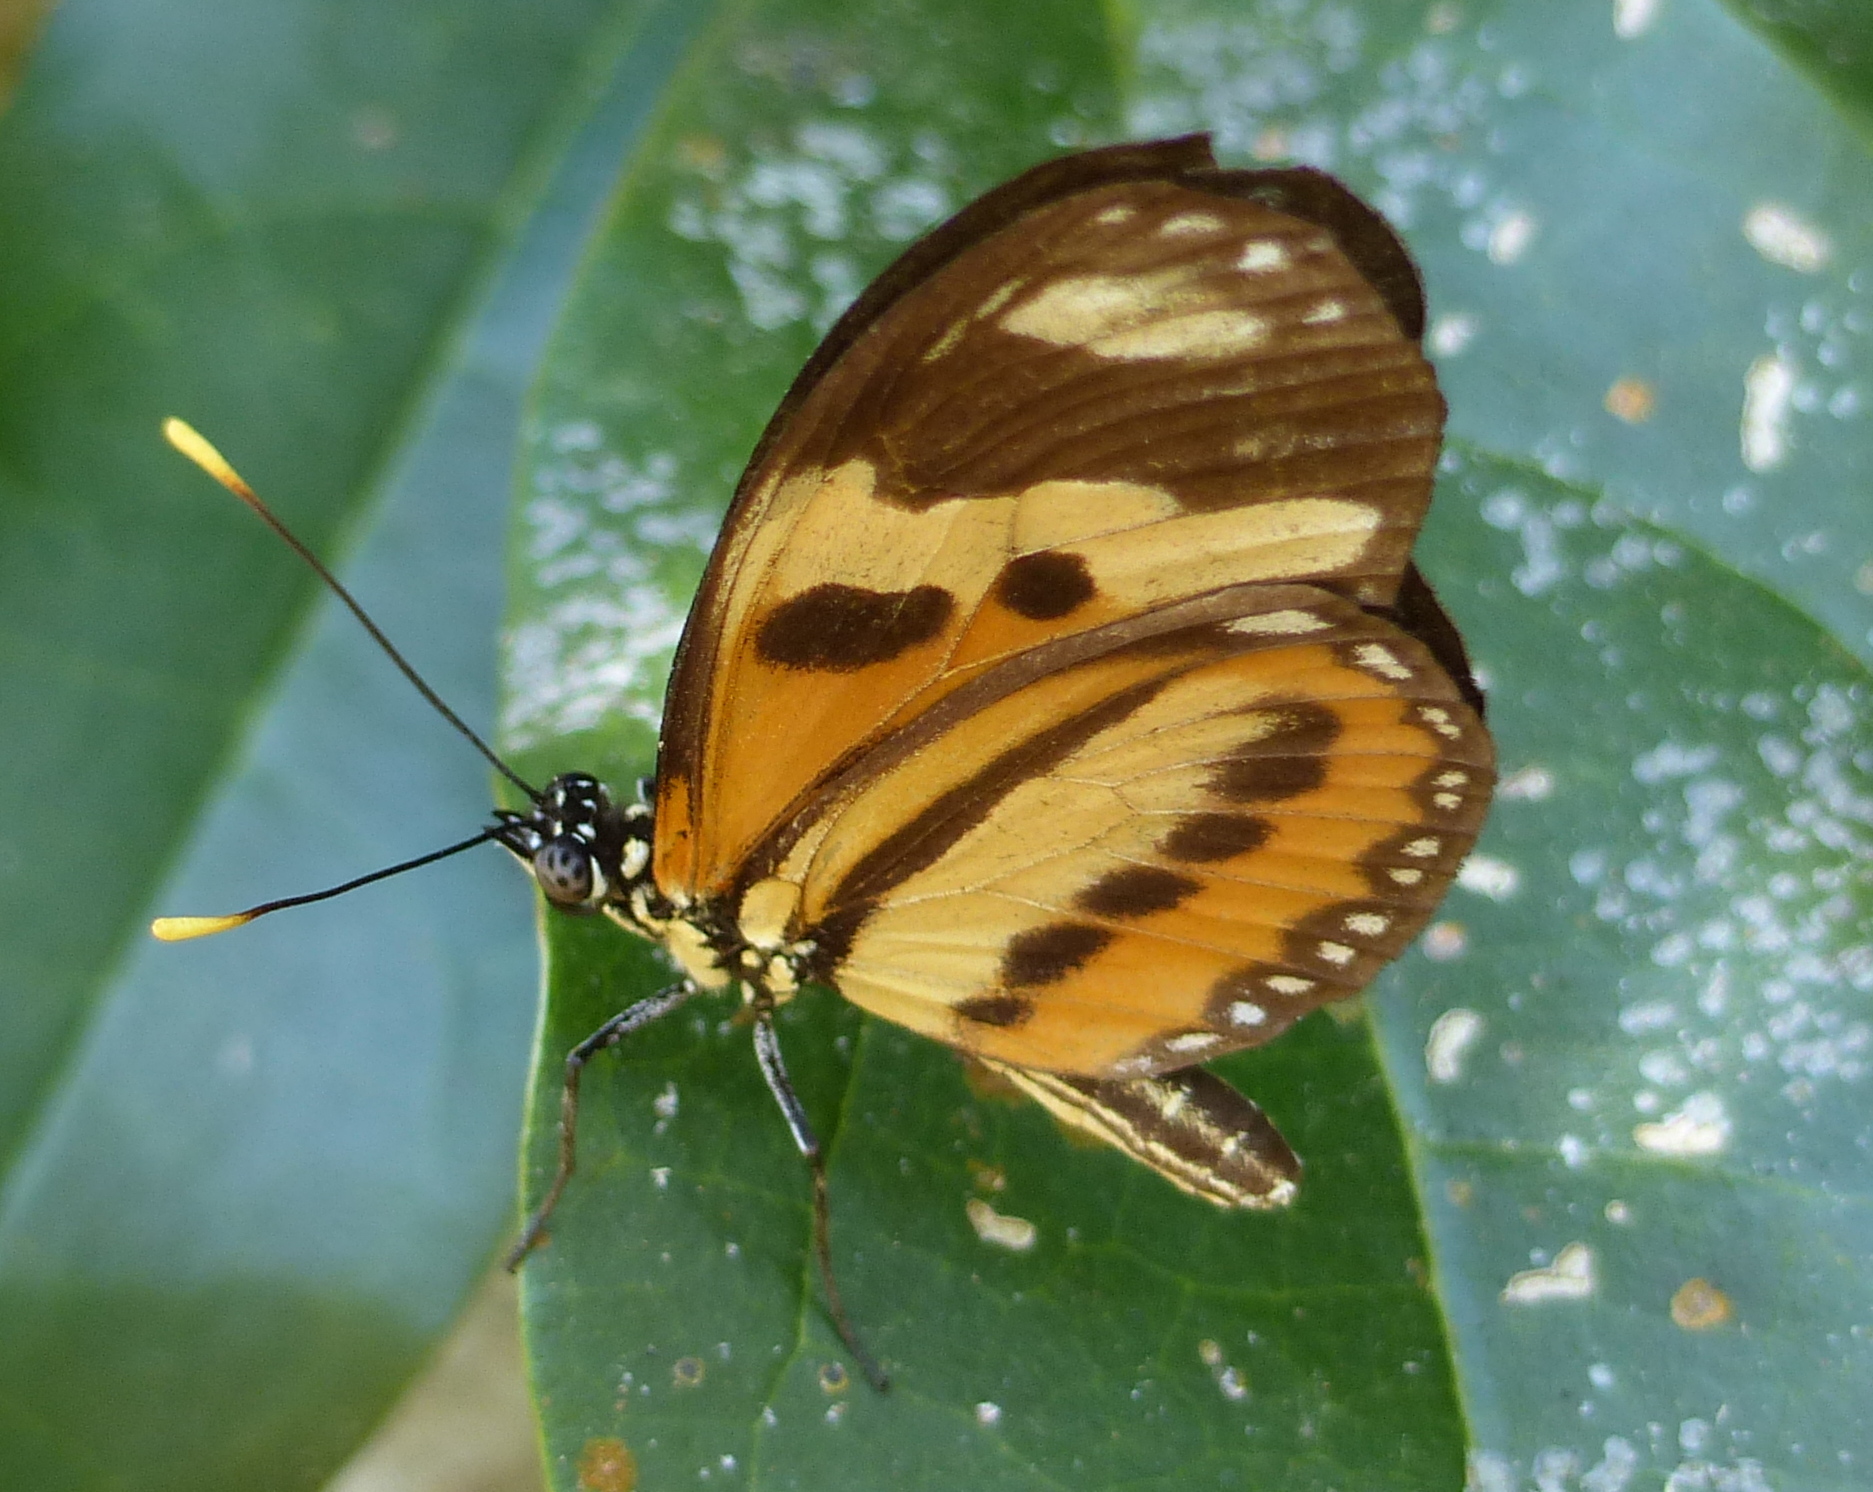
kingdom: Animalia
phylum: Arthropoda
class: Insecta
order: Lepidoptera
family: Nymphalidae
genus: Eueides
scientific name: Eueides isabella
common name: Isabella's longwing
